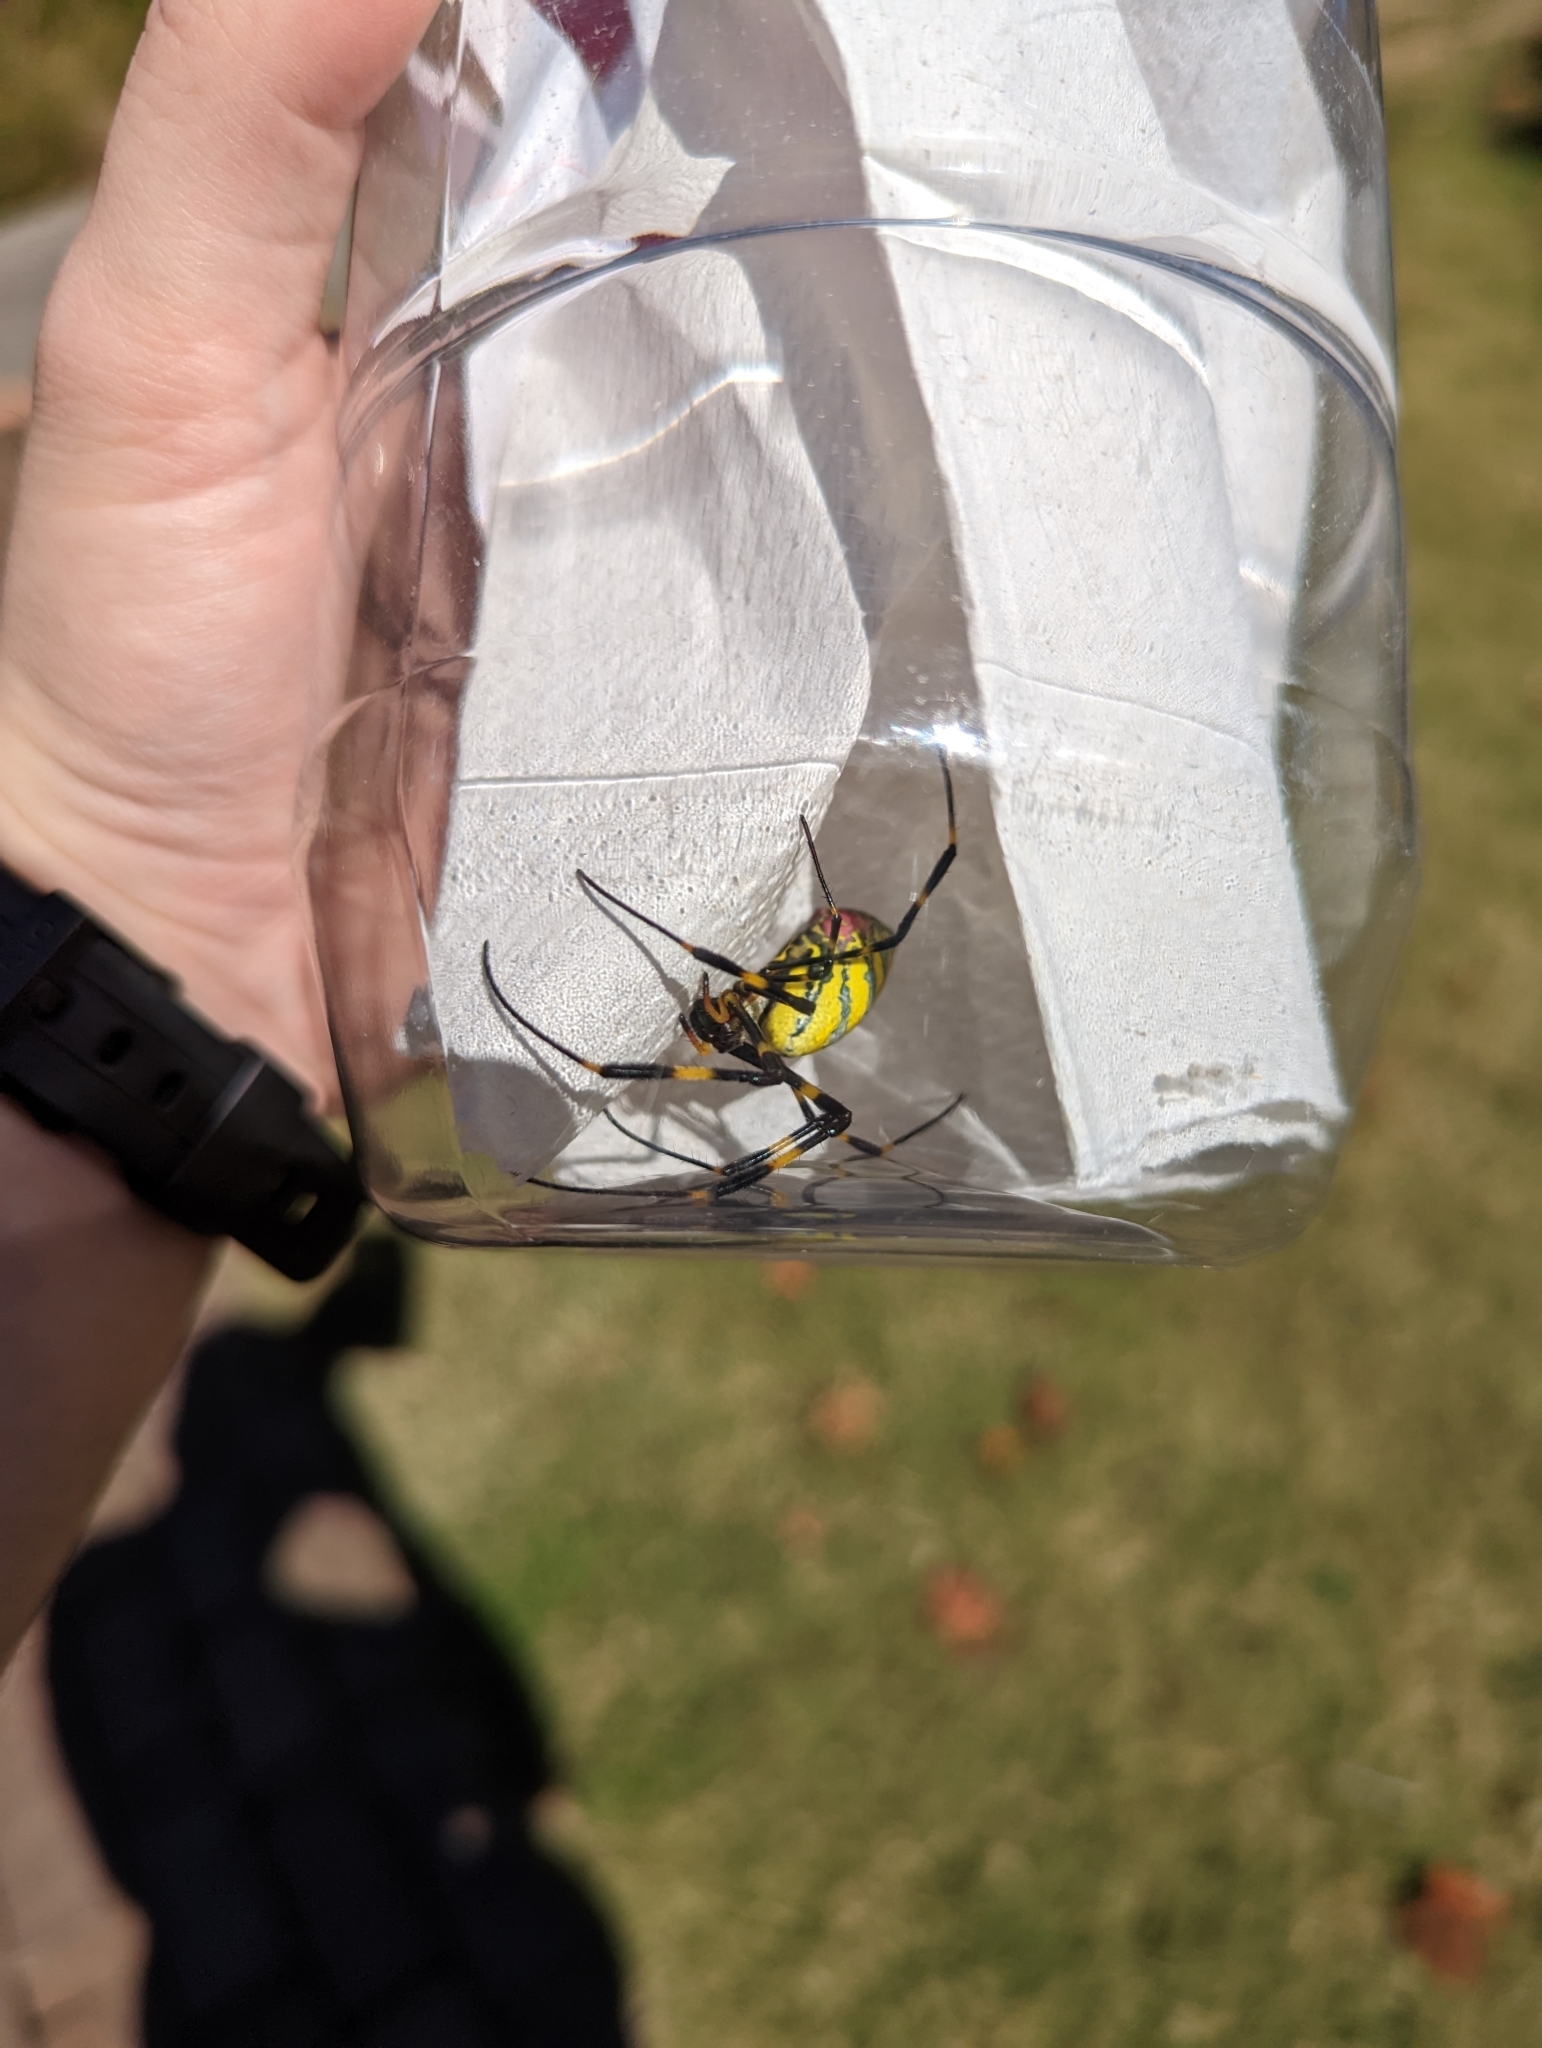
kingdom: Animalia
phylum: Arthropoda
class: Arachnida
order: Araneae
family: Araneidae
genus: Trichonephila
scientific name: Trichonephila clavata
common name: Jorō spider
